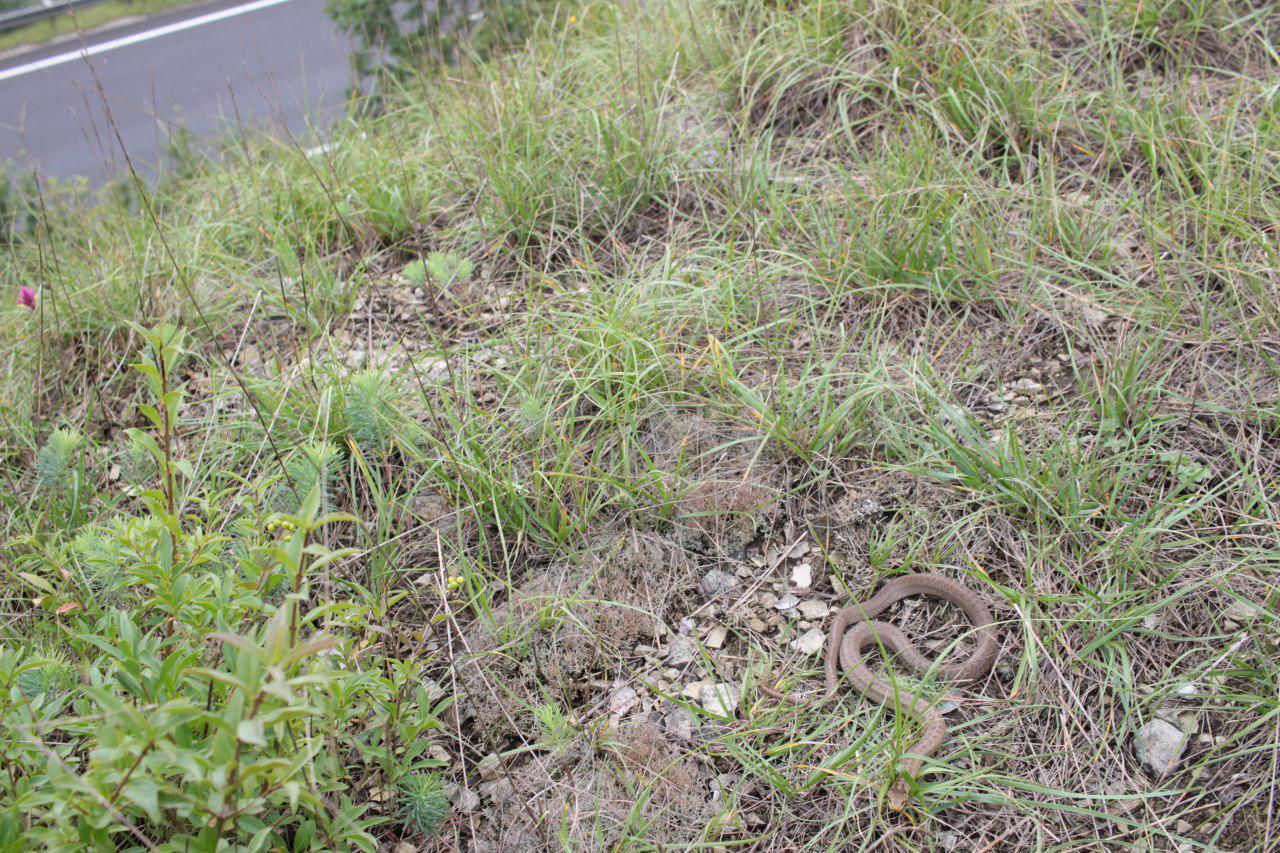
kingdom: Animalia
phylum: Chordata
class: Squamata
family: Colubridae
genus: Coronella
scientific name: Coronella austriaca
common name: Smooth snake
